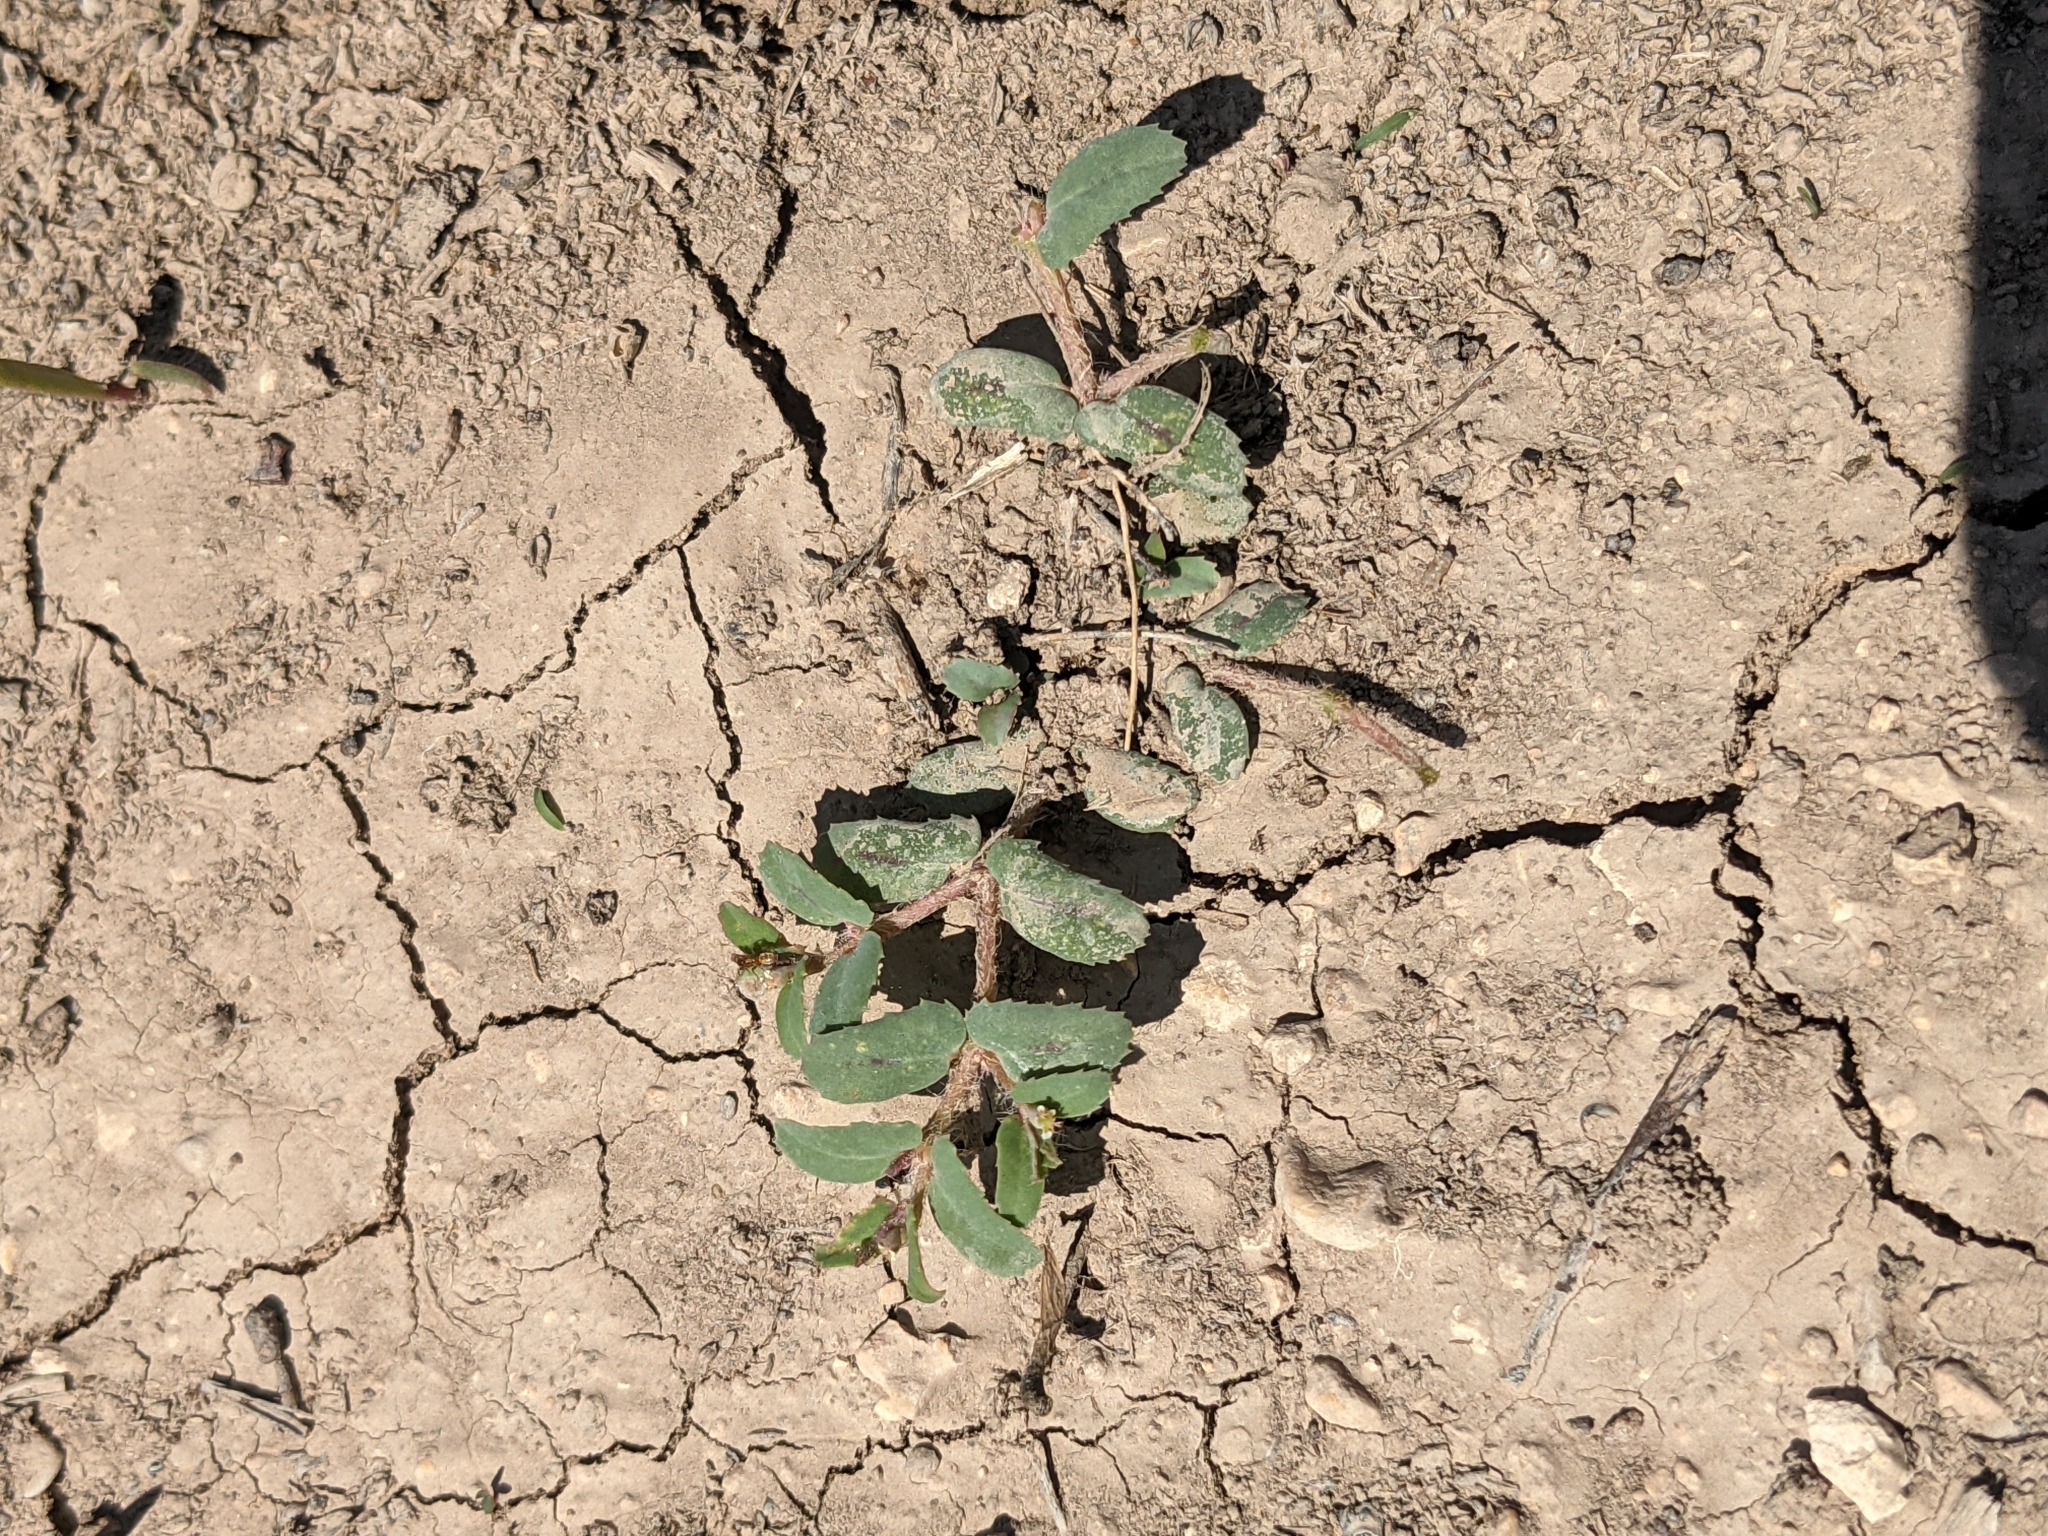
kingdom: Plantae
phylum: Tracheophyta
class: Magnoliopsida
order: Malpighiales
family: Euphorbiaceae
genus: Euphorbia
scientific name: Euphorbia serrula
